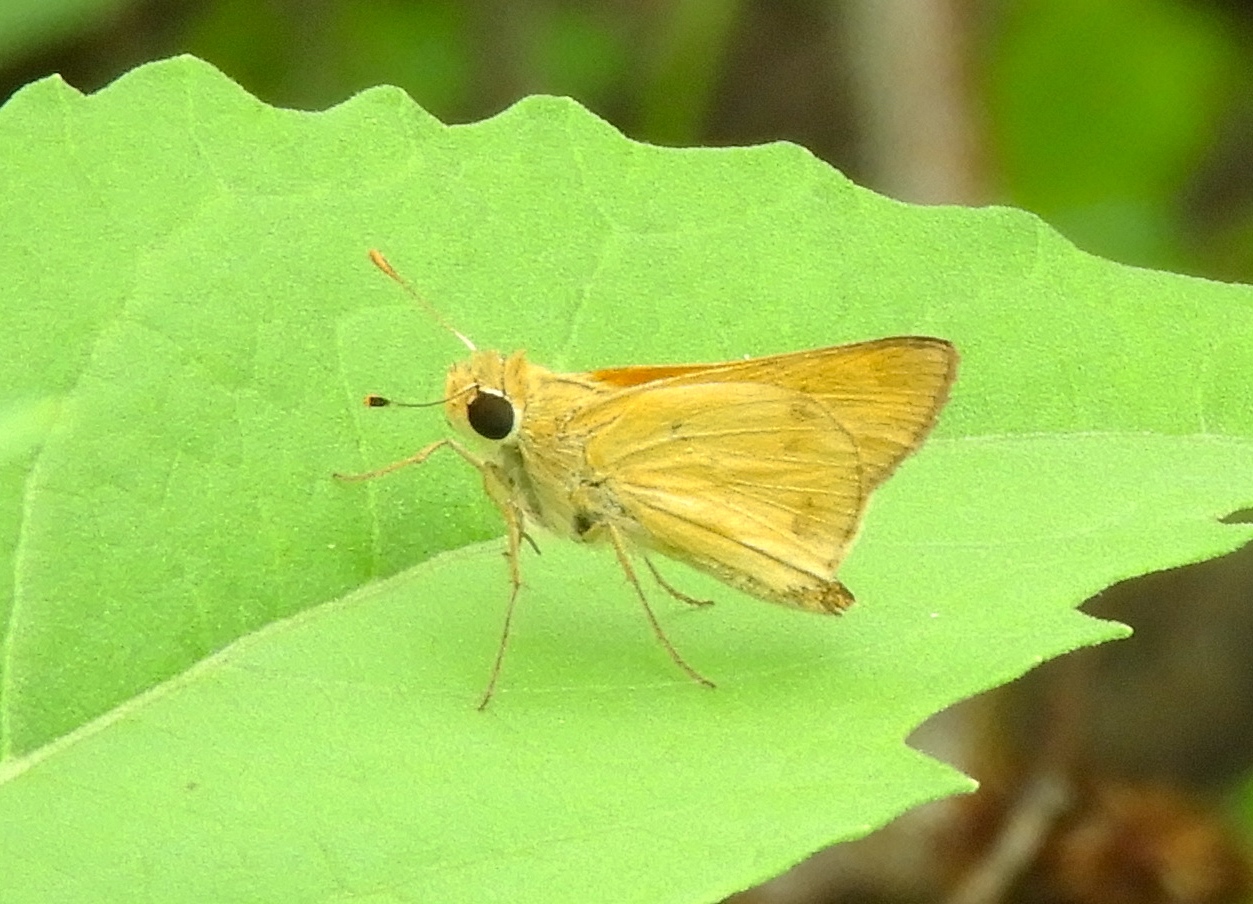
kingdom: Animalia
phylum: Arthropoda
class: Insecta
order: Lepidoptera
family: Hesperiidae
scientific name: Hesperiidae
